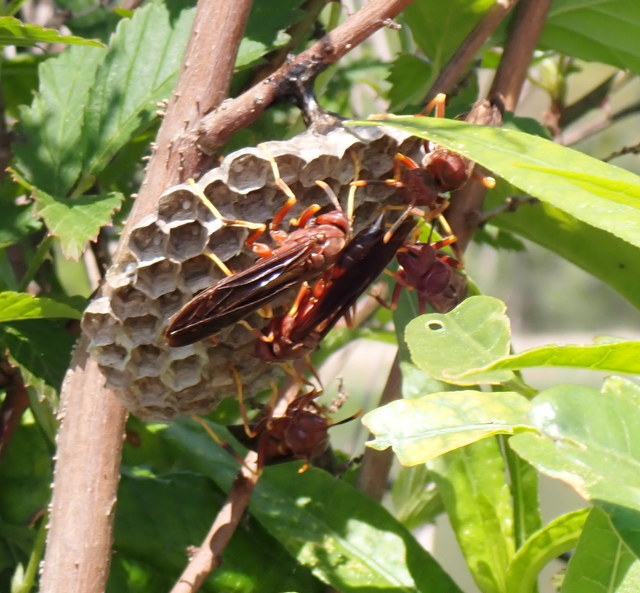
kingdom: Animalia
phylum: Arthropoda
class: Insecta
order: Hymenoptera
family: Eumenidae
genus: Polistes
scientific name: Polistes annularis
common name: Ringed paper wasp
